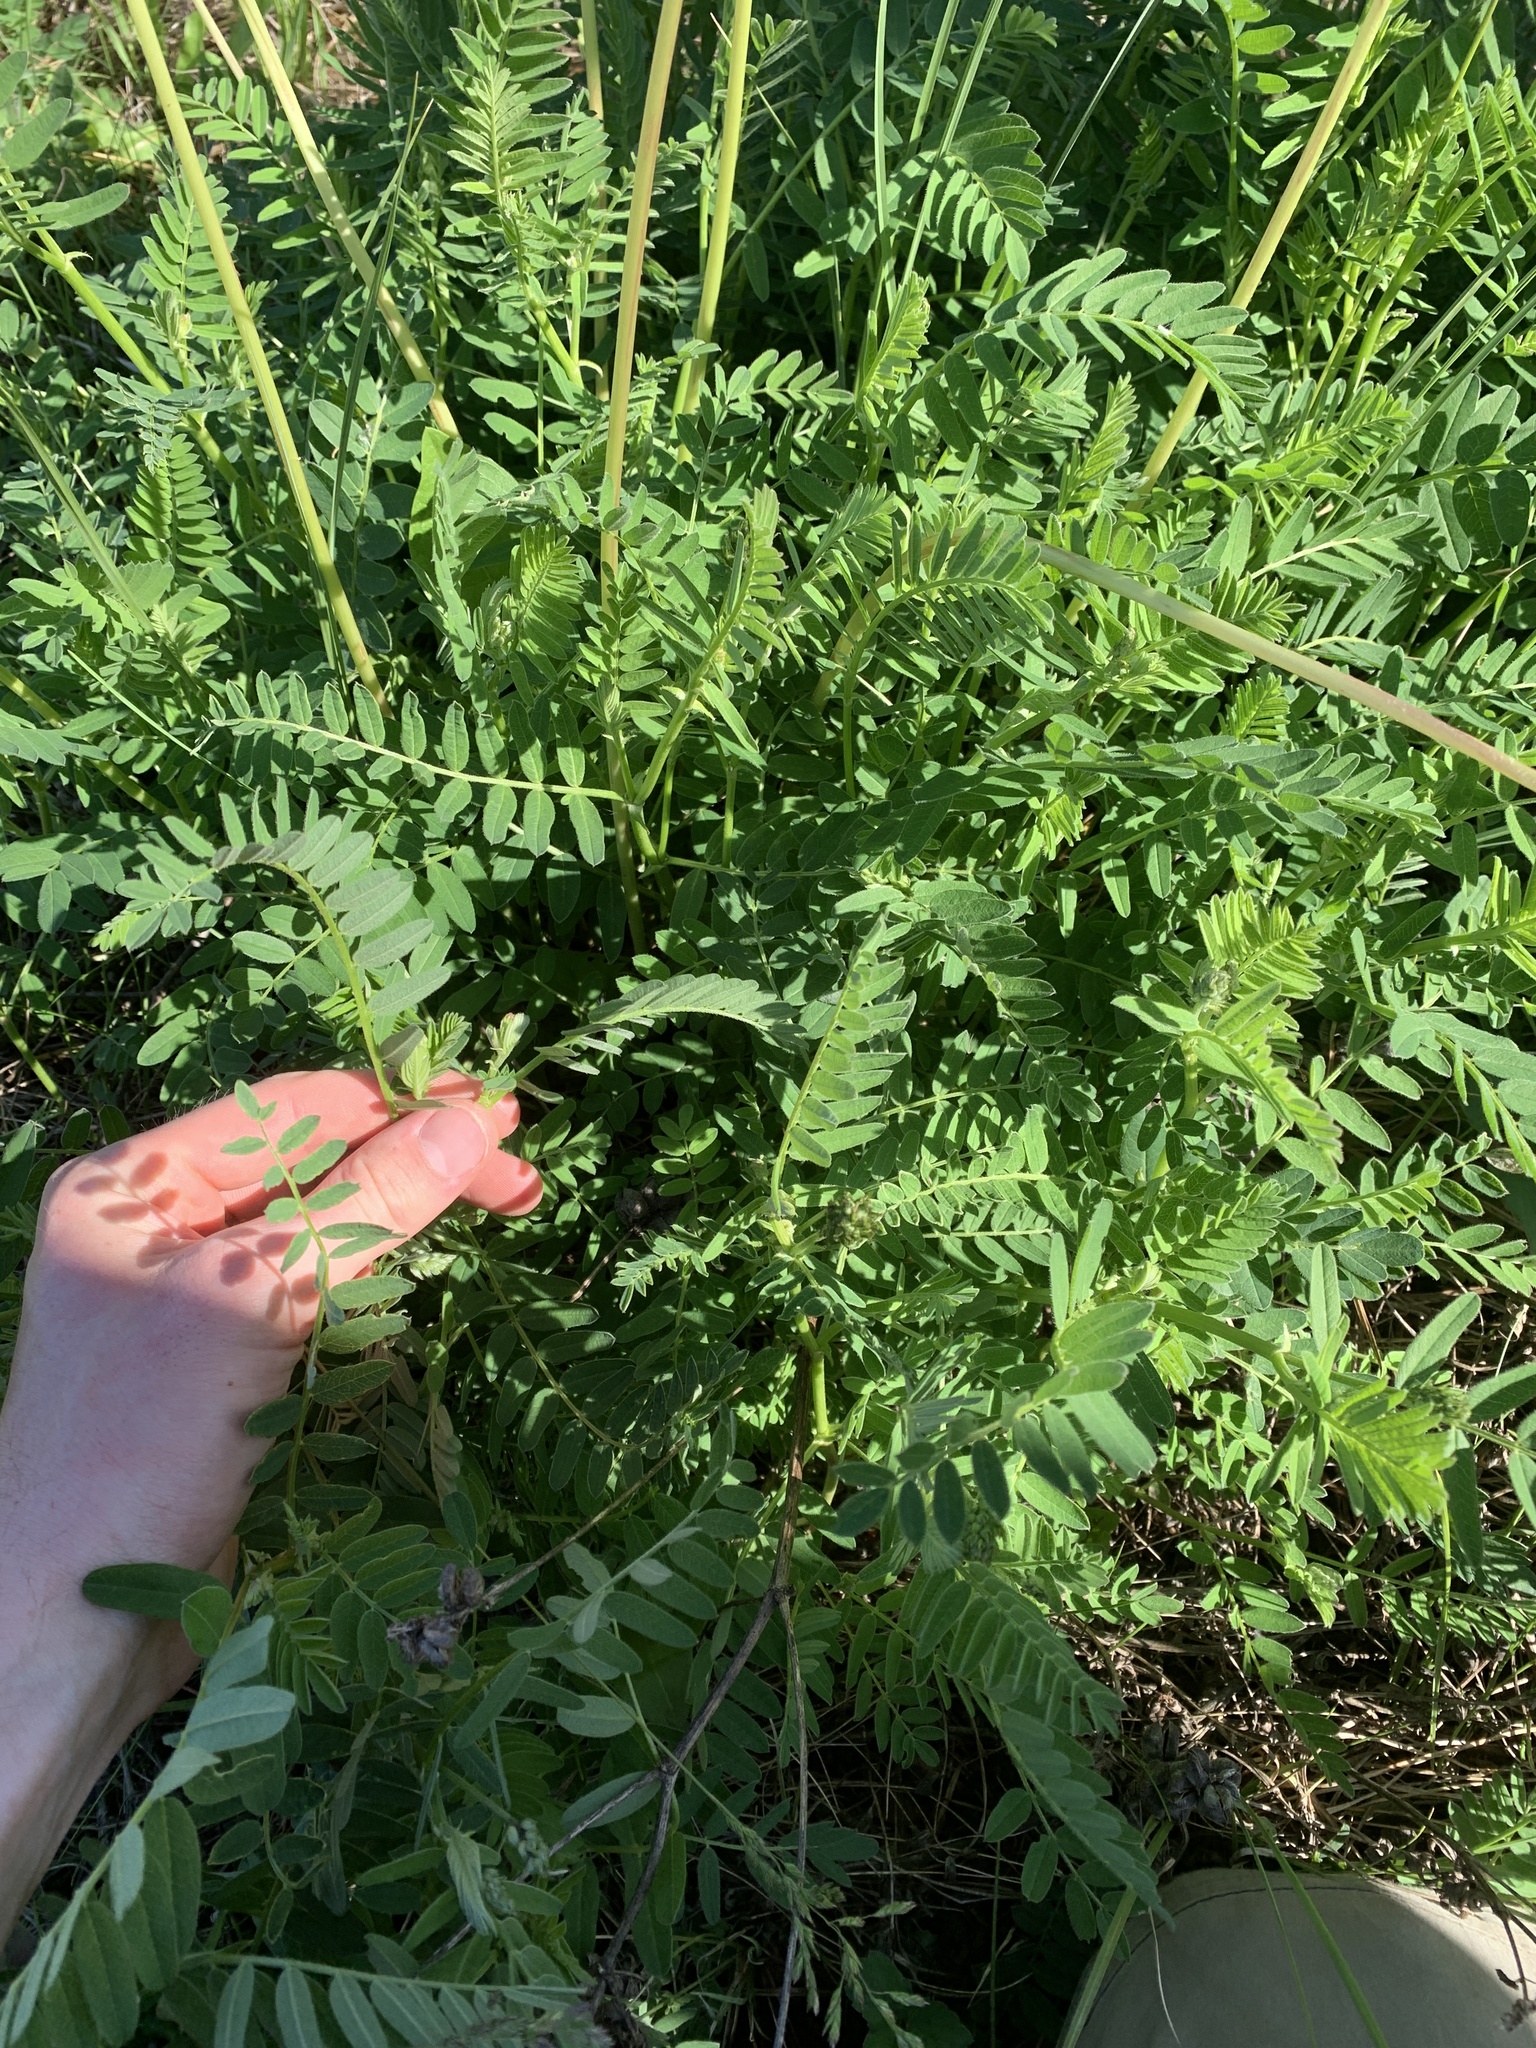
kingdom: Plantae
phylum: Tracheophyta
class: Magnoliopsida
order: Fabales
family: Fabaceae
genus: Astragalus
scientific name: Astragalus cicer
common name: Chick-pea milk-vetch
